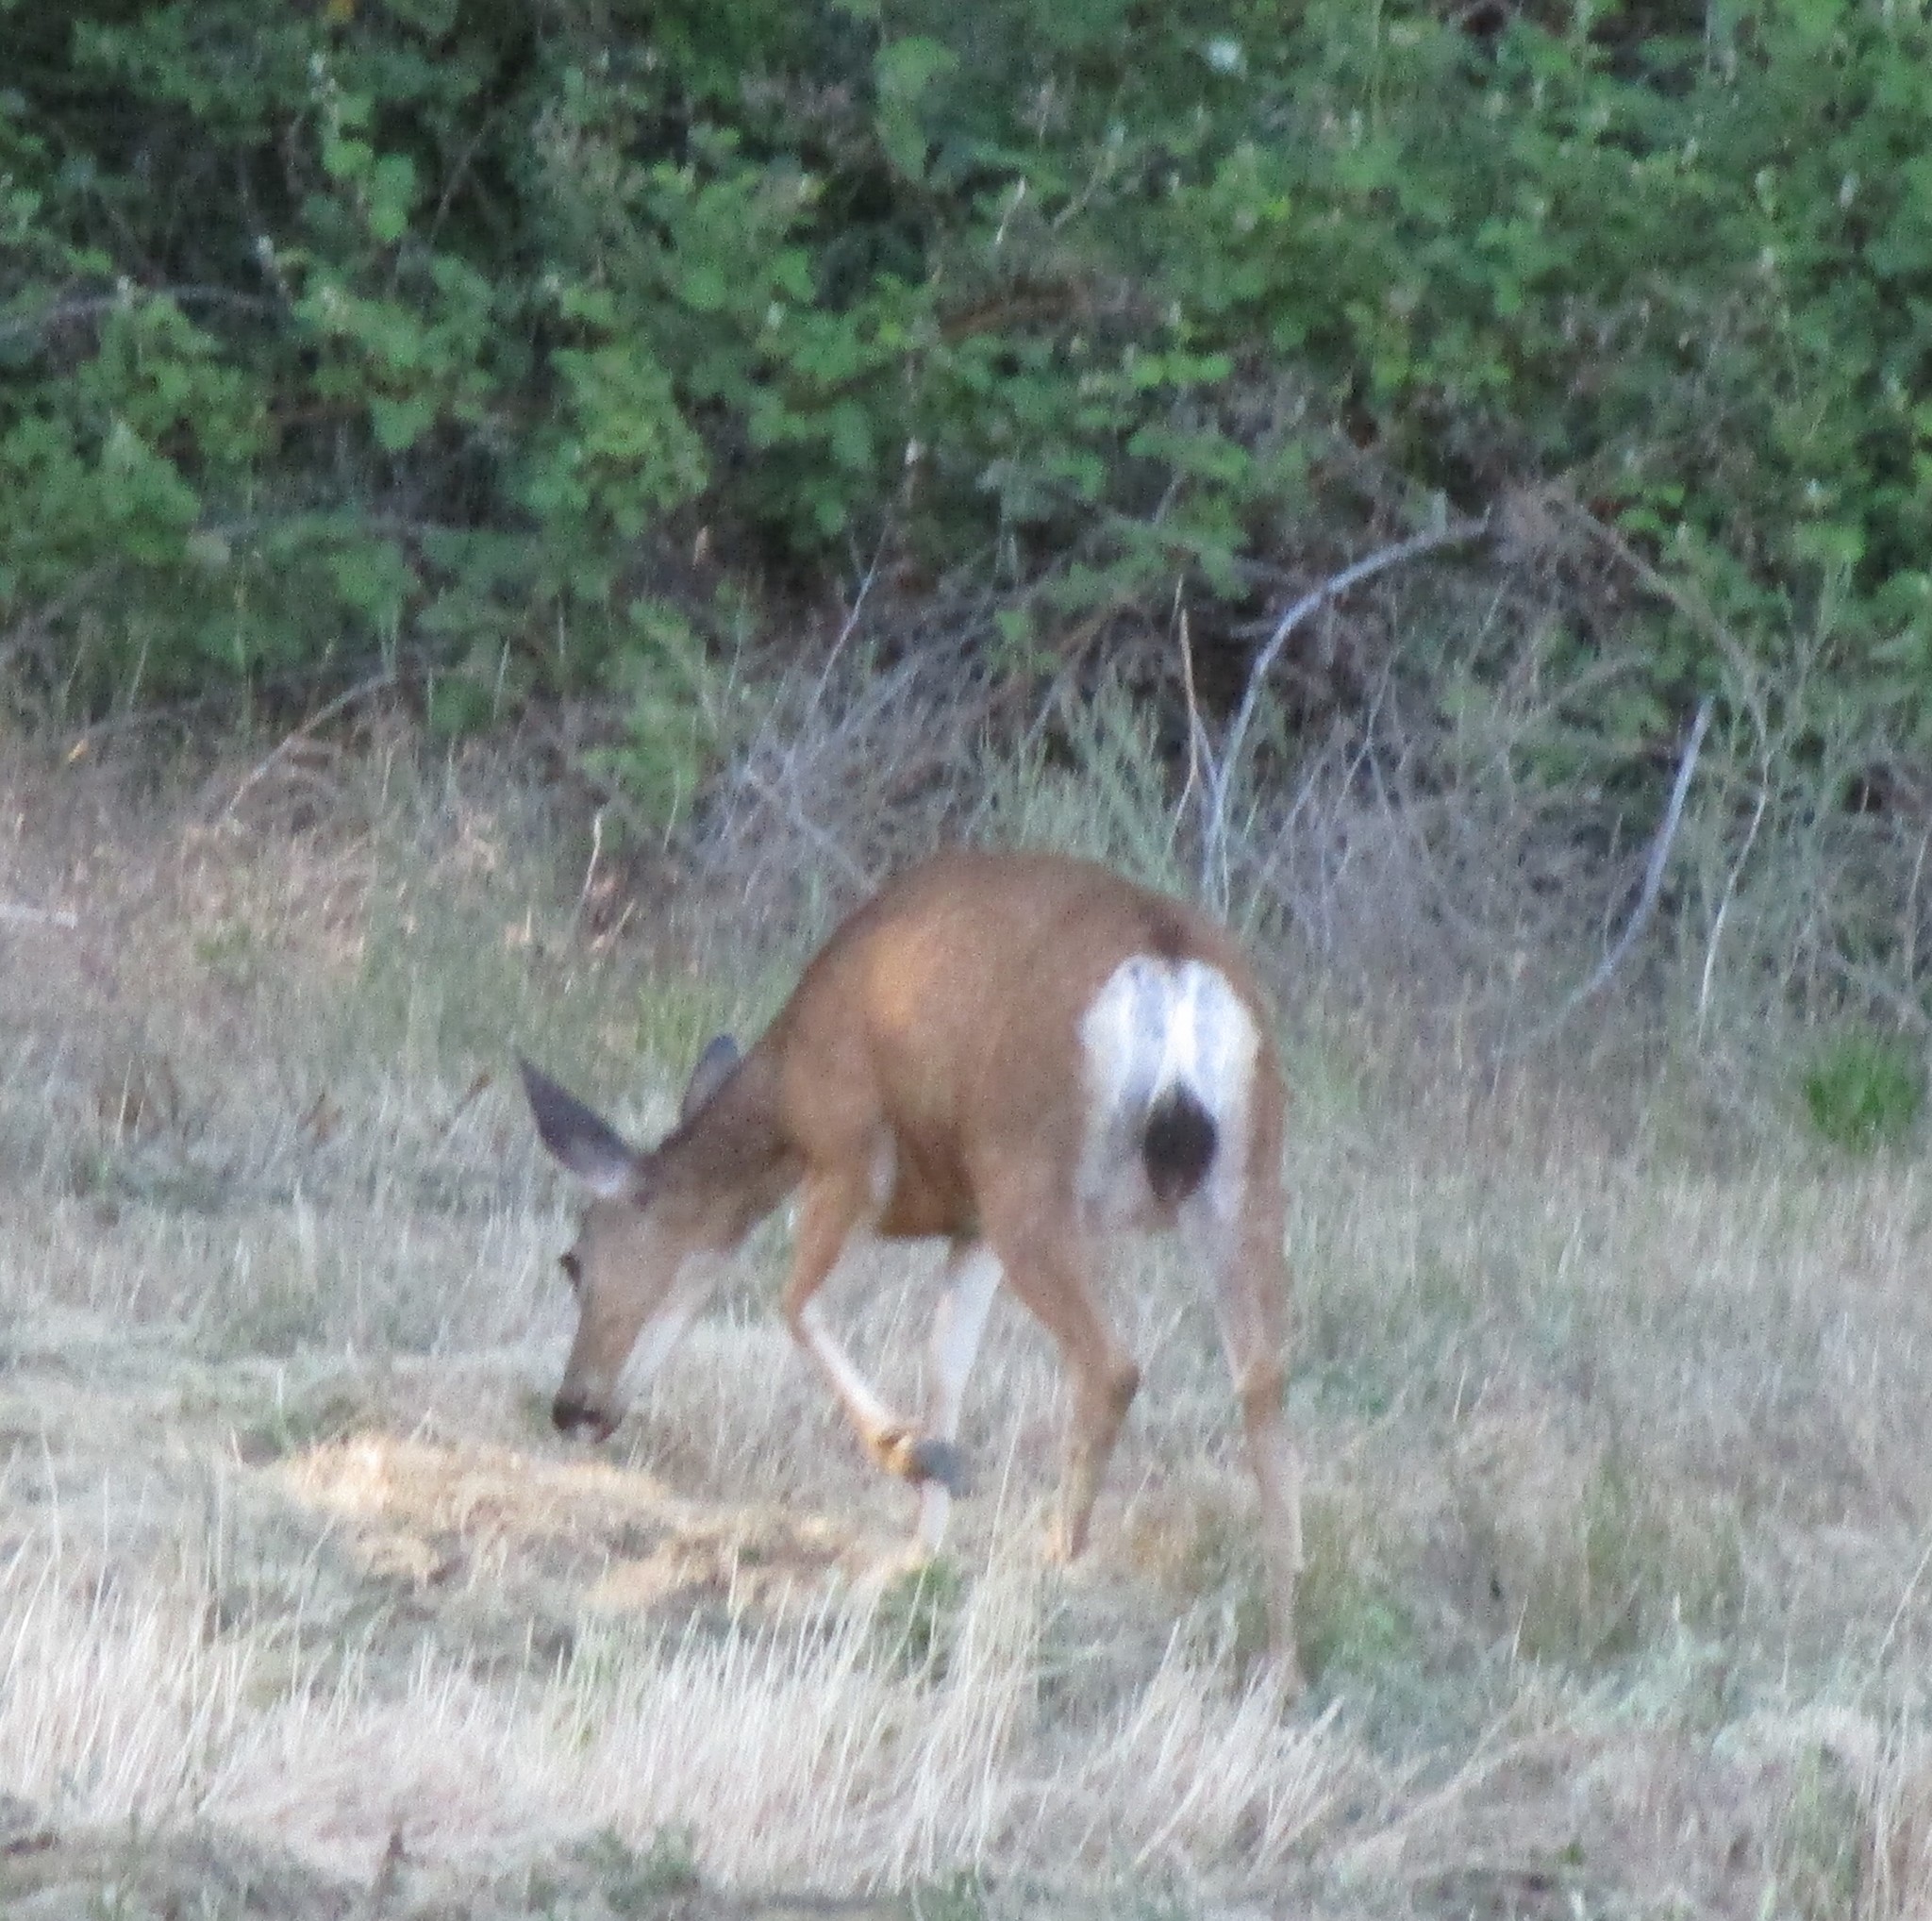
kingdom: Animalia
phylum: Chordata
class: Mammalia
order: Artiodactyla
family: Cervidae
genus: Odocoileus
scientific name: Odocoileus hemionus
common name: Mule deer
